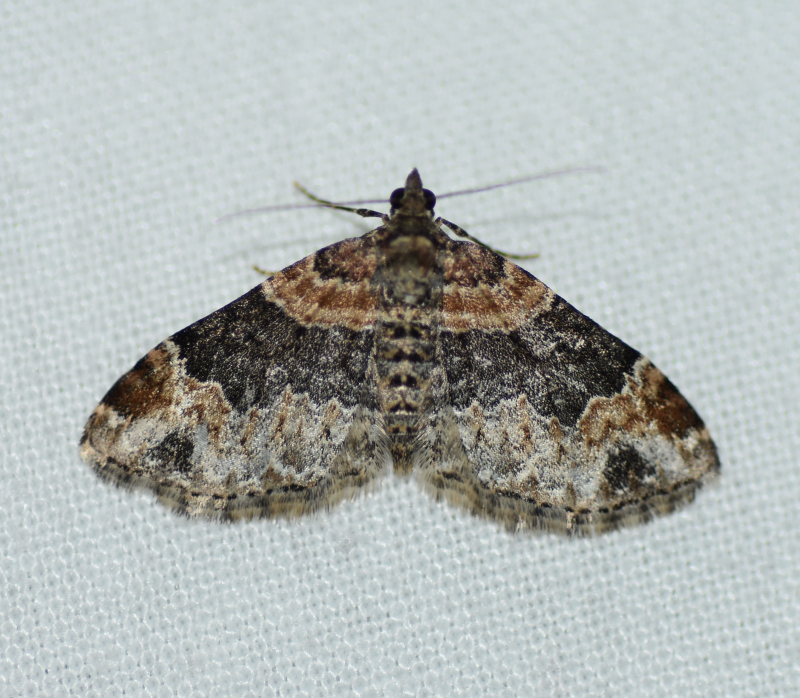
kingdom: Animalia
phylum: Arthropoda
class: Insecta
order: Lepidoptera
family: Geometridae
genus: Xanthorhoe
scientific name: Xanthorhoe ferrugata
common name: Dark-barred twin-spot carpet
